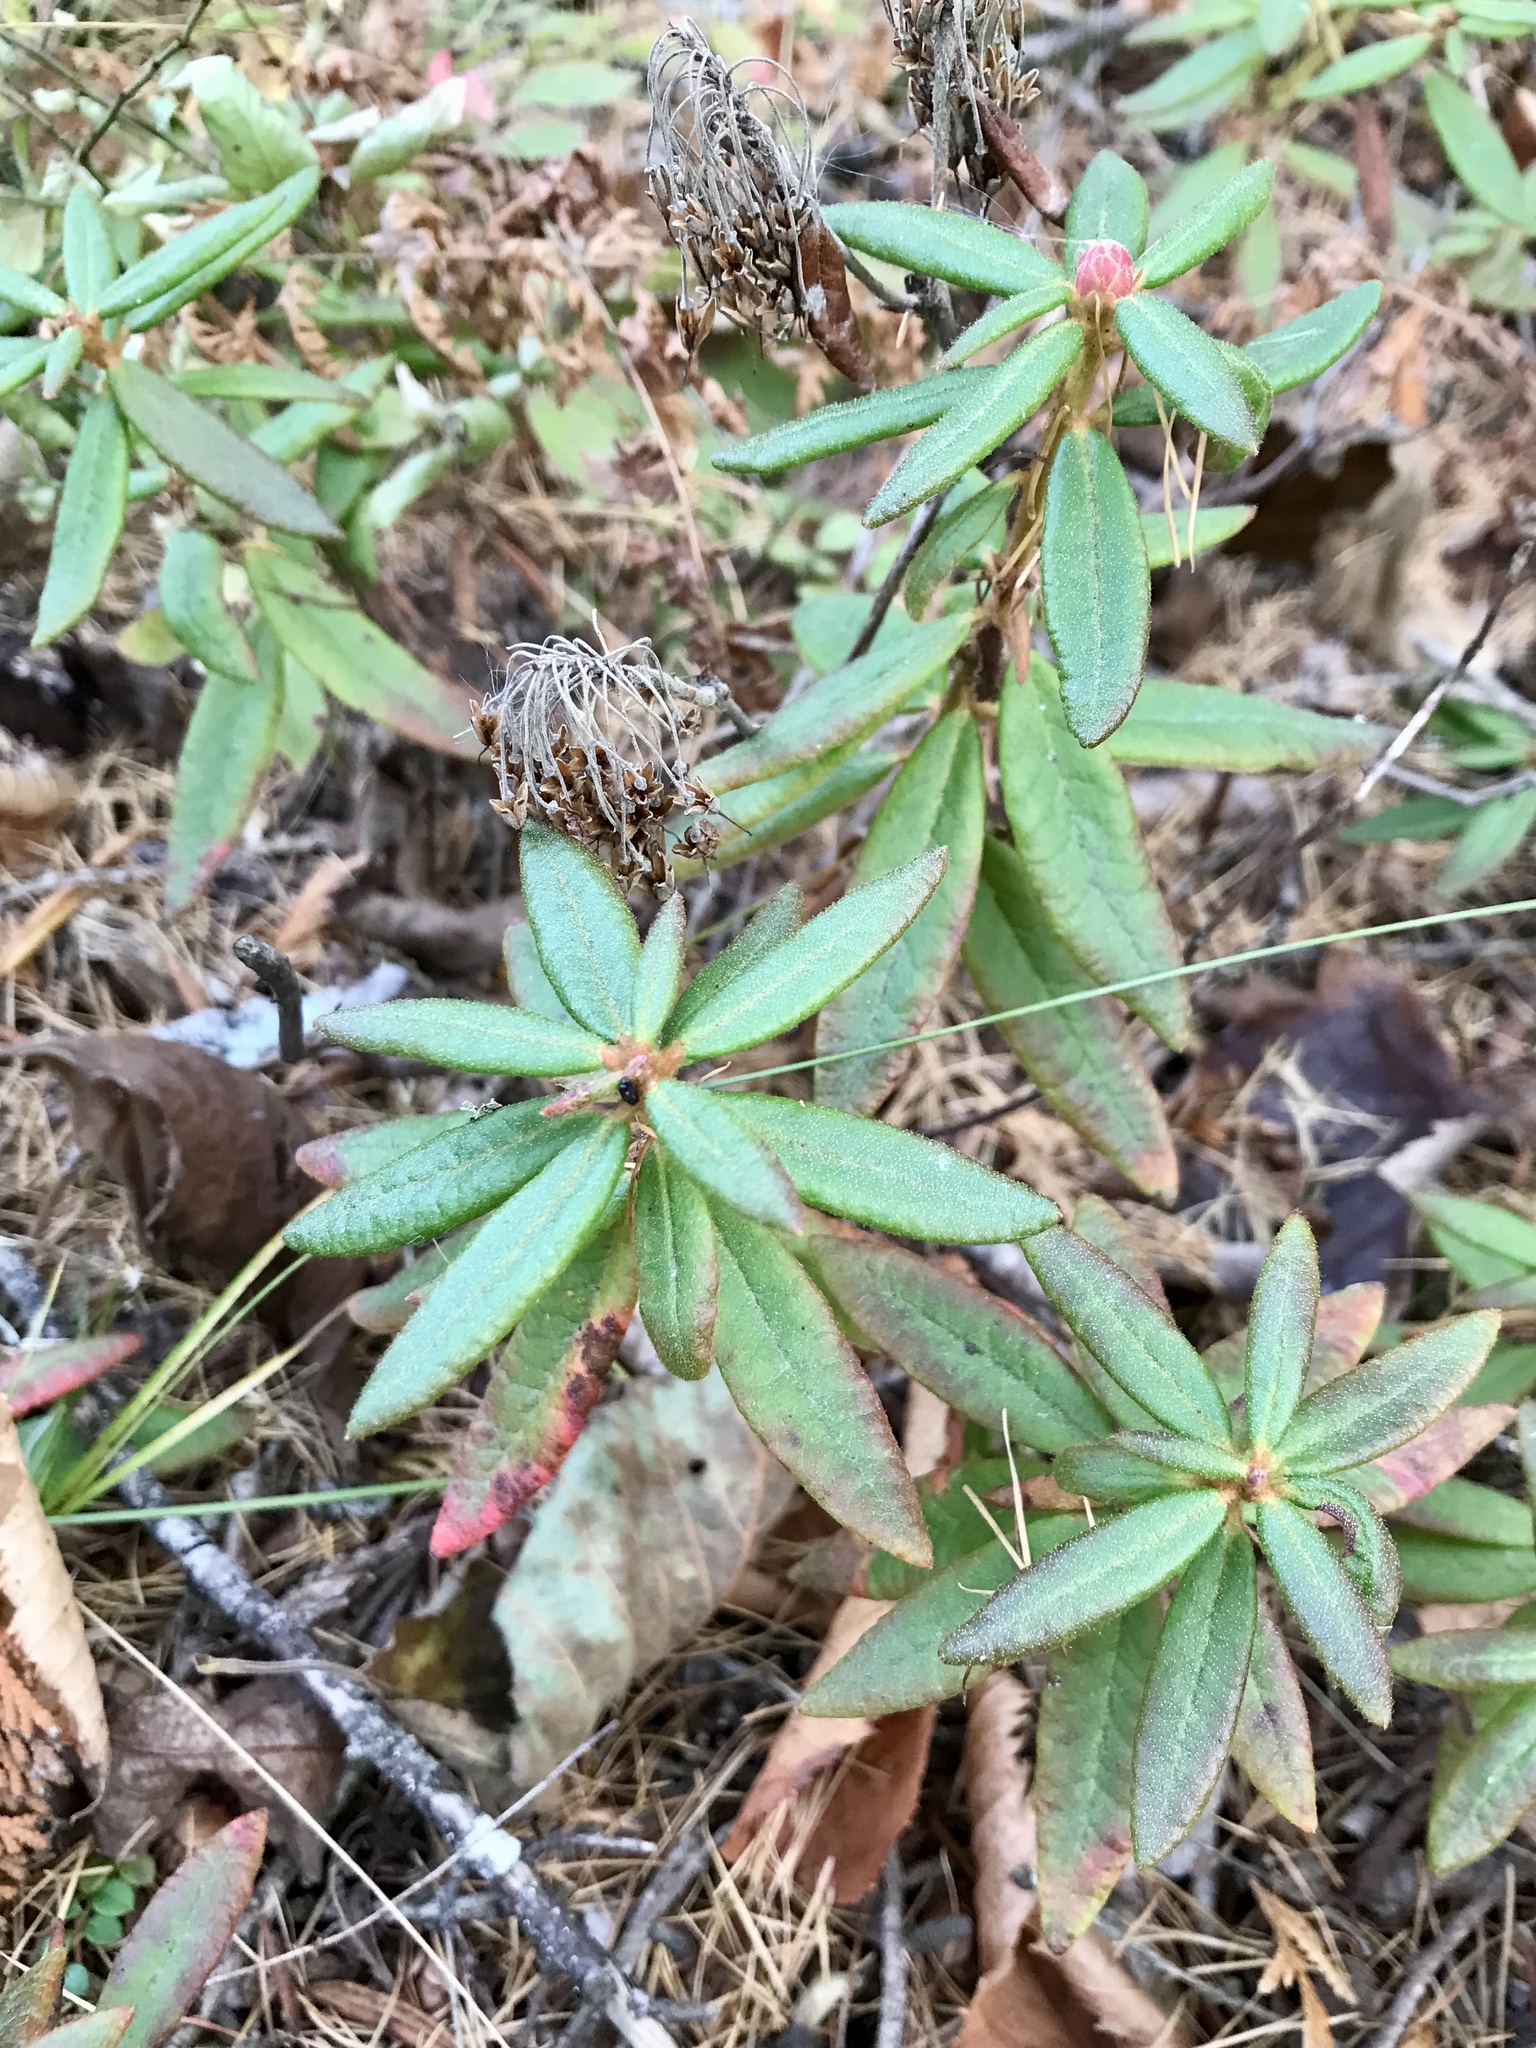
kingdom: Plantae
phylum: Tracheophyta
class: Magnoliopsida
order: Ericales
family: Ericaceae
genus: Rhododendron
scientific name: Rhododendron groenlandicum
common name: Bog labrador tea
